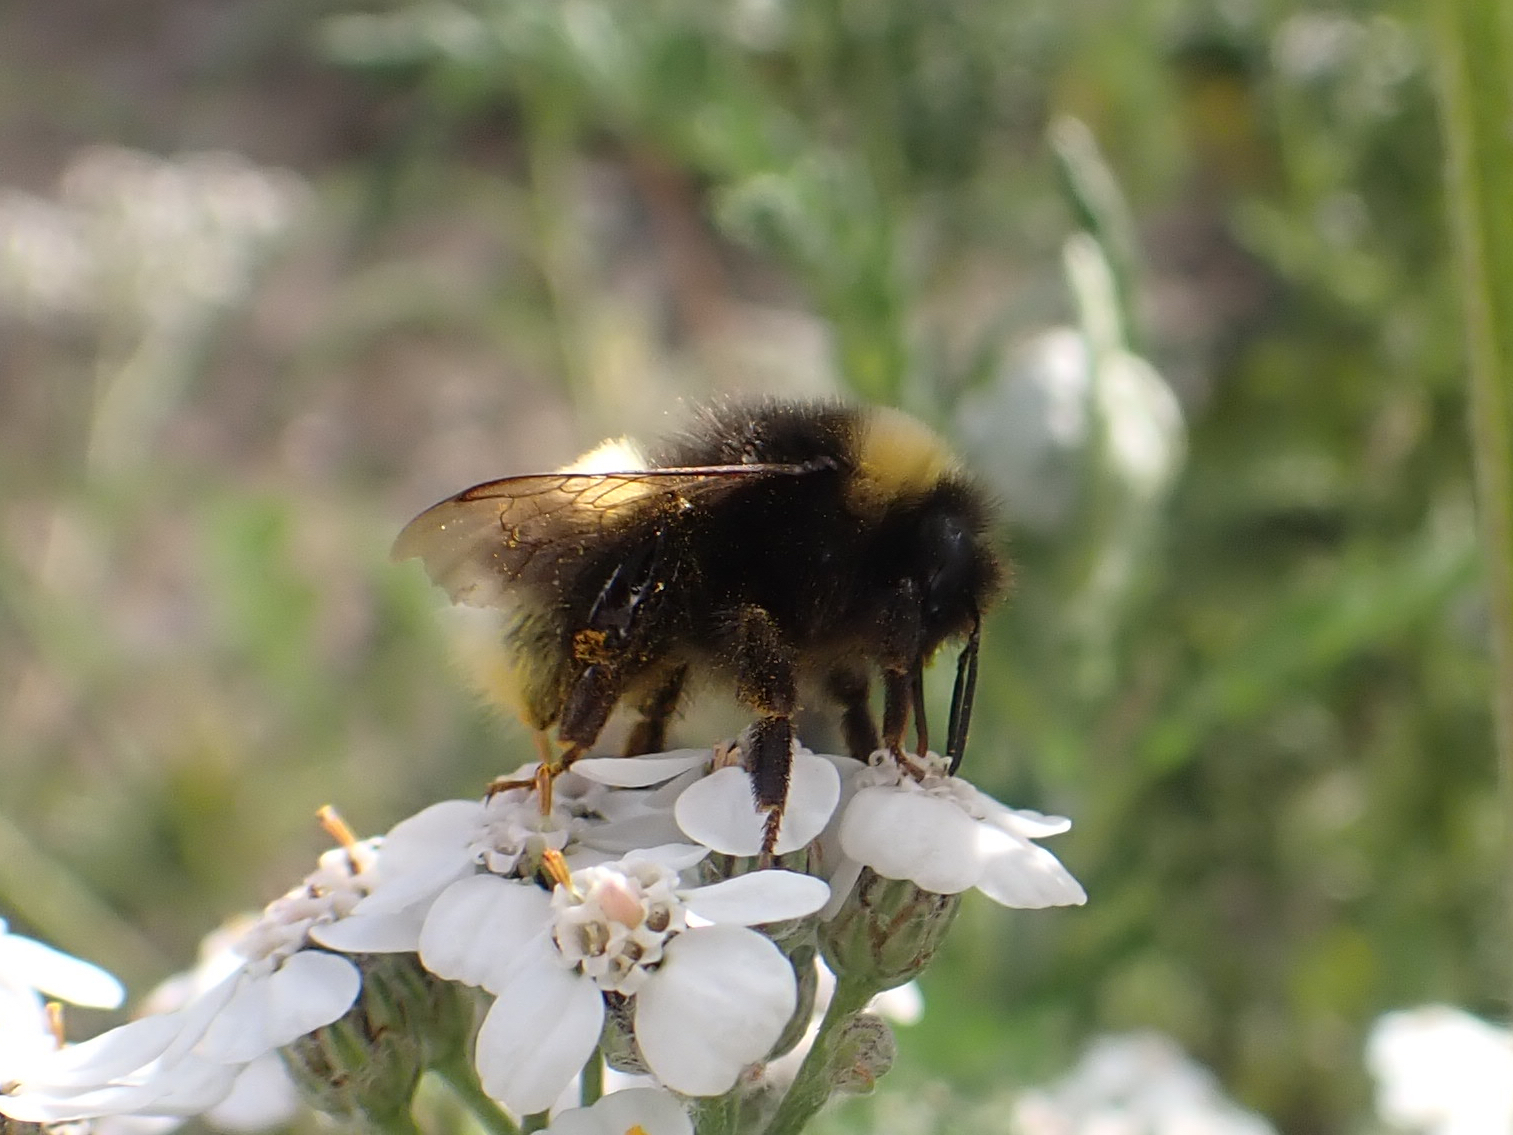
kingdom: Animalia
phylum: Arthropoda
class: Insecta
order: Hymenoptera
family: Apidae
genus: Bombus
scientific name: Bombus cryptarum
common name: Cryptic bumblebee
